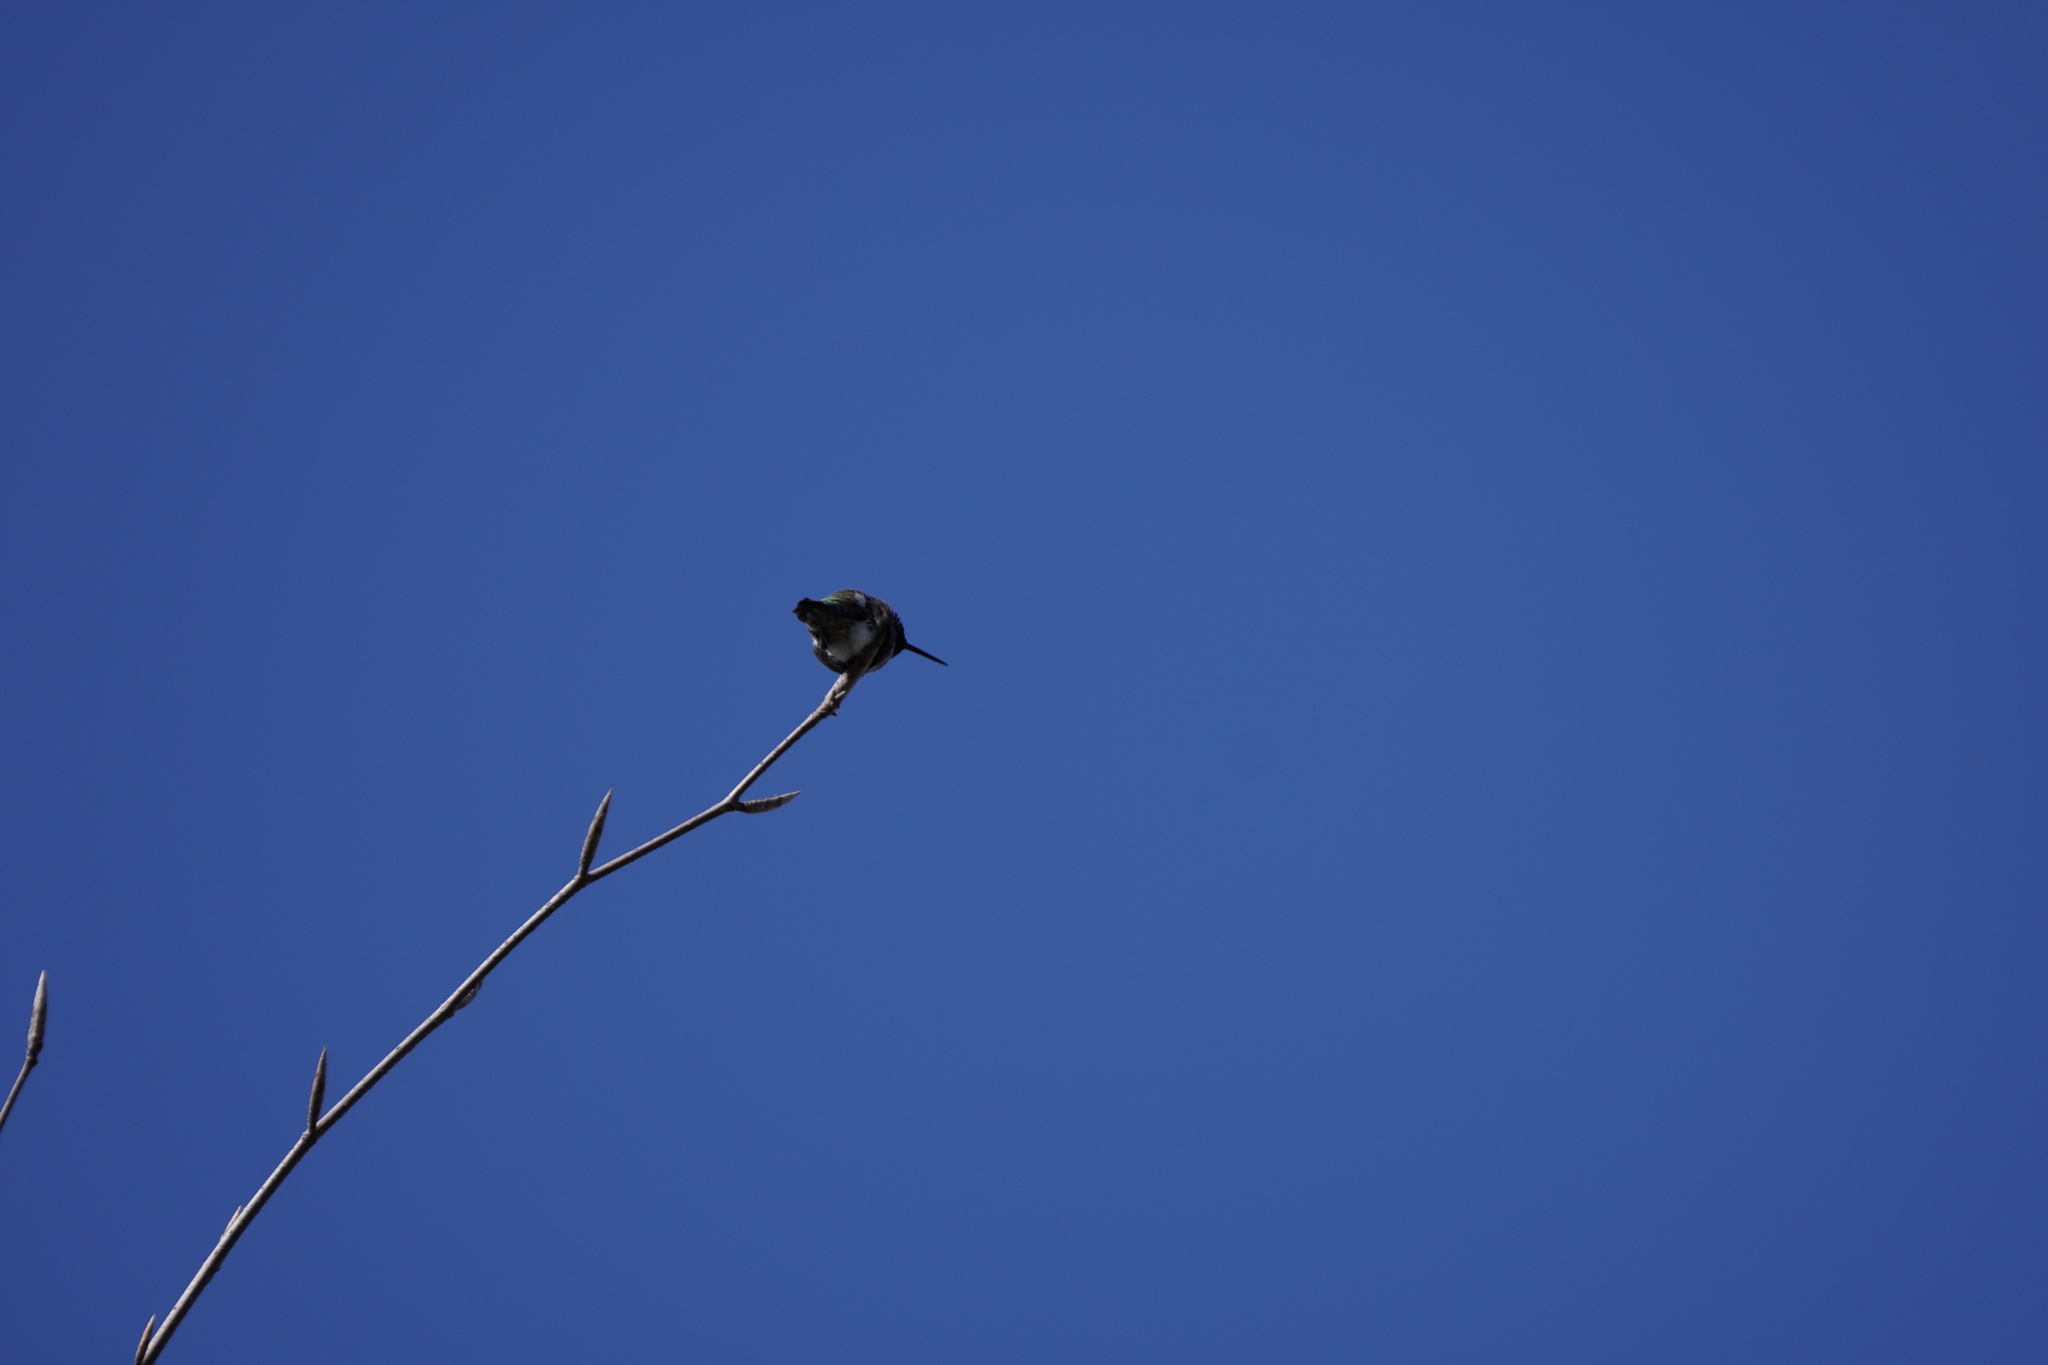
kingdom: Animalia
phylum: Chordata
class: Aves
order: Apodiformes
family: Trochilidae
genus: Calypte
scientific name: Calypte anna
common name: Anna's hummingbird
